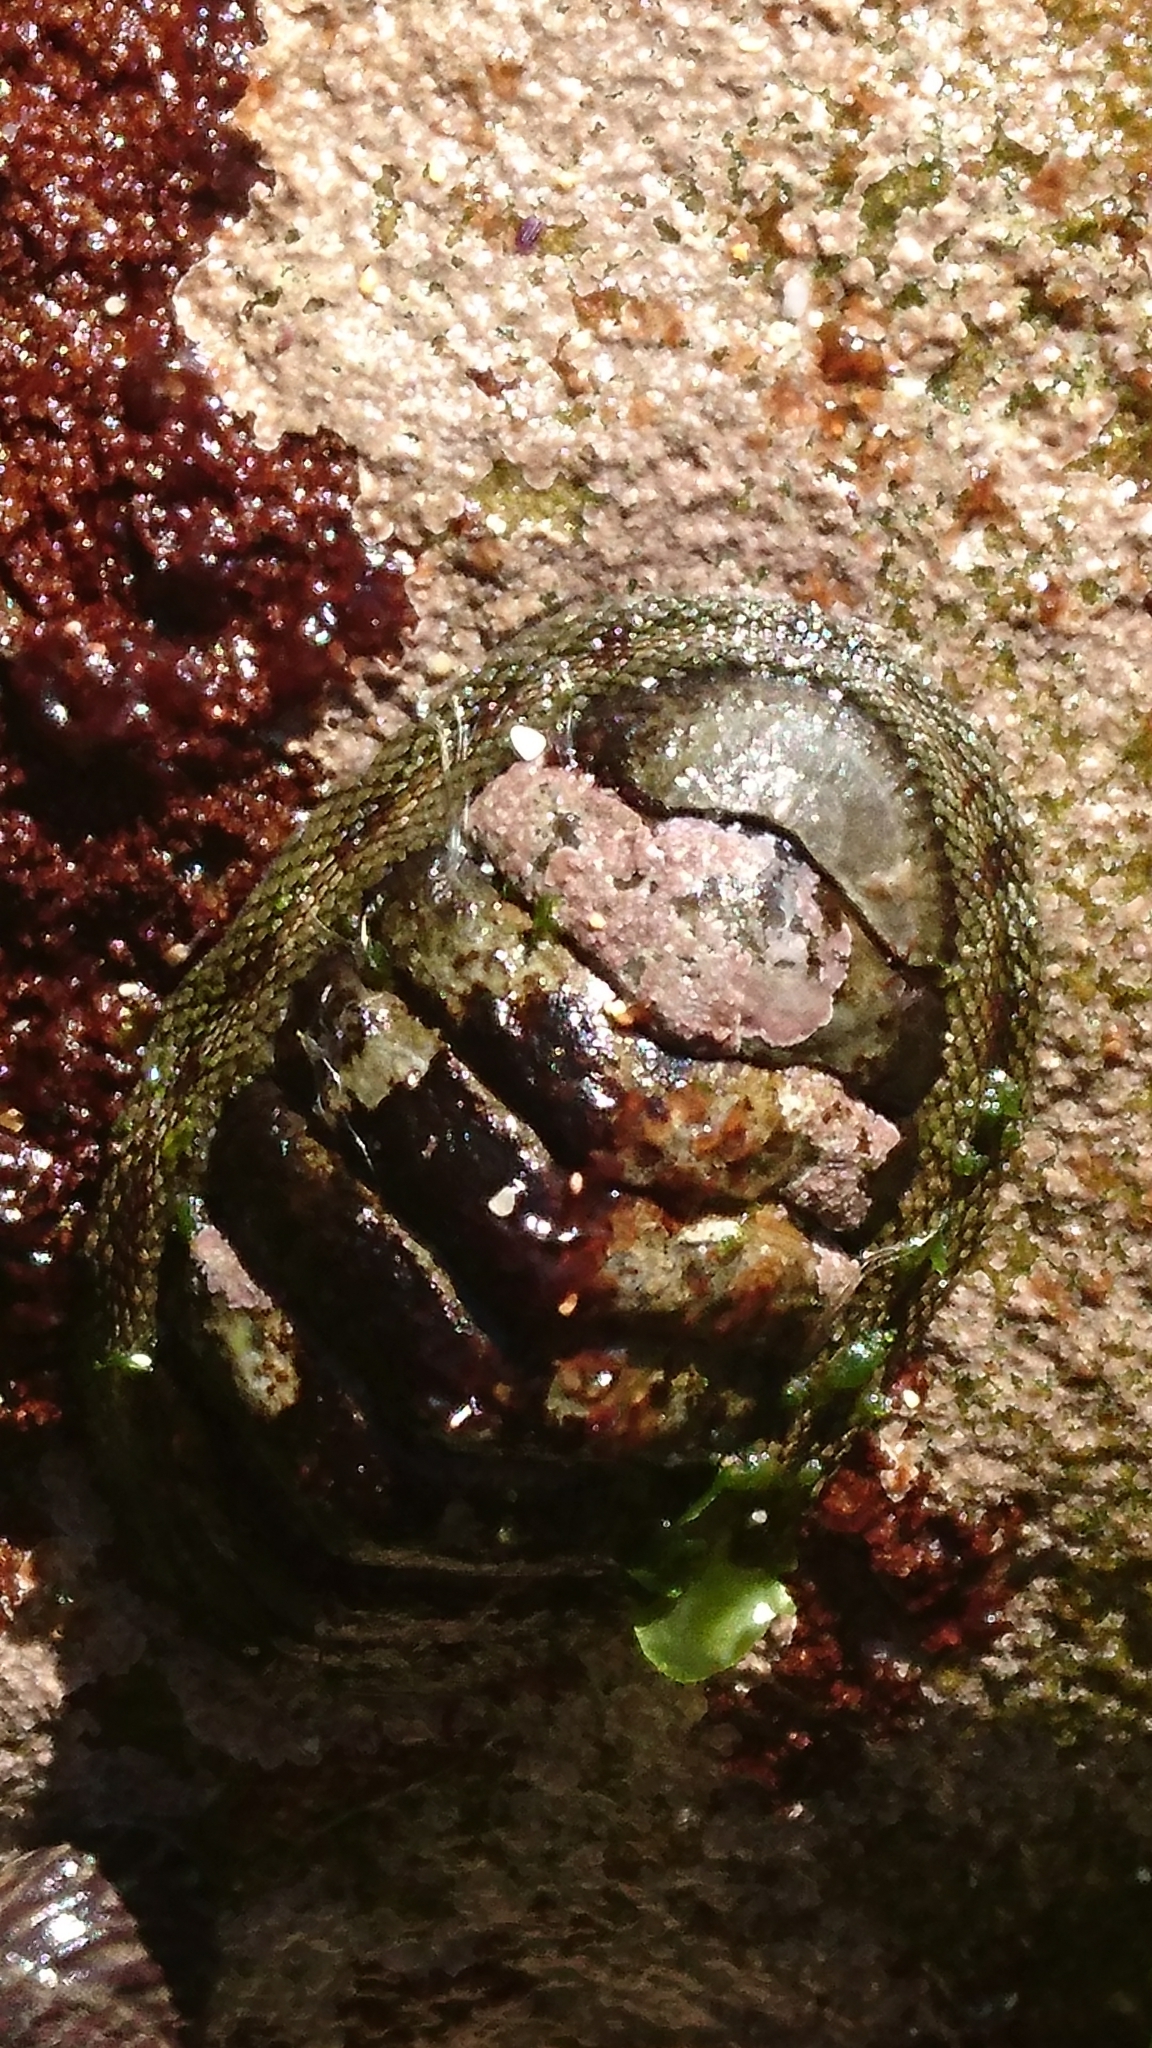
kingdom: Animalia
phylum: Mollusca
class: Polyplacophora
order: Chitonida
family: Chitonidae
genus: Sypharochiton
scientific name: Sypharochiton pelliserpentis
